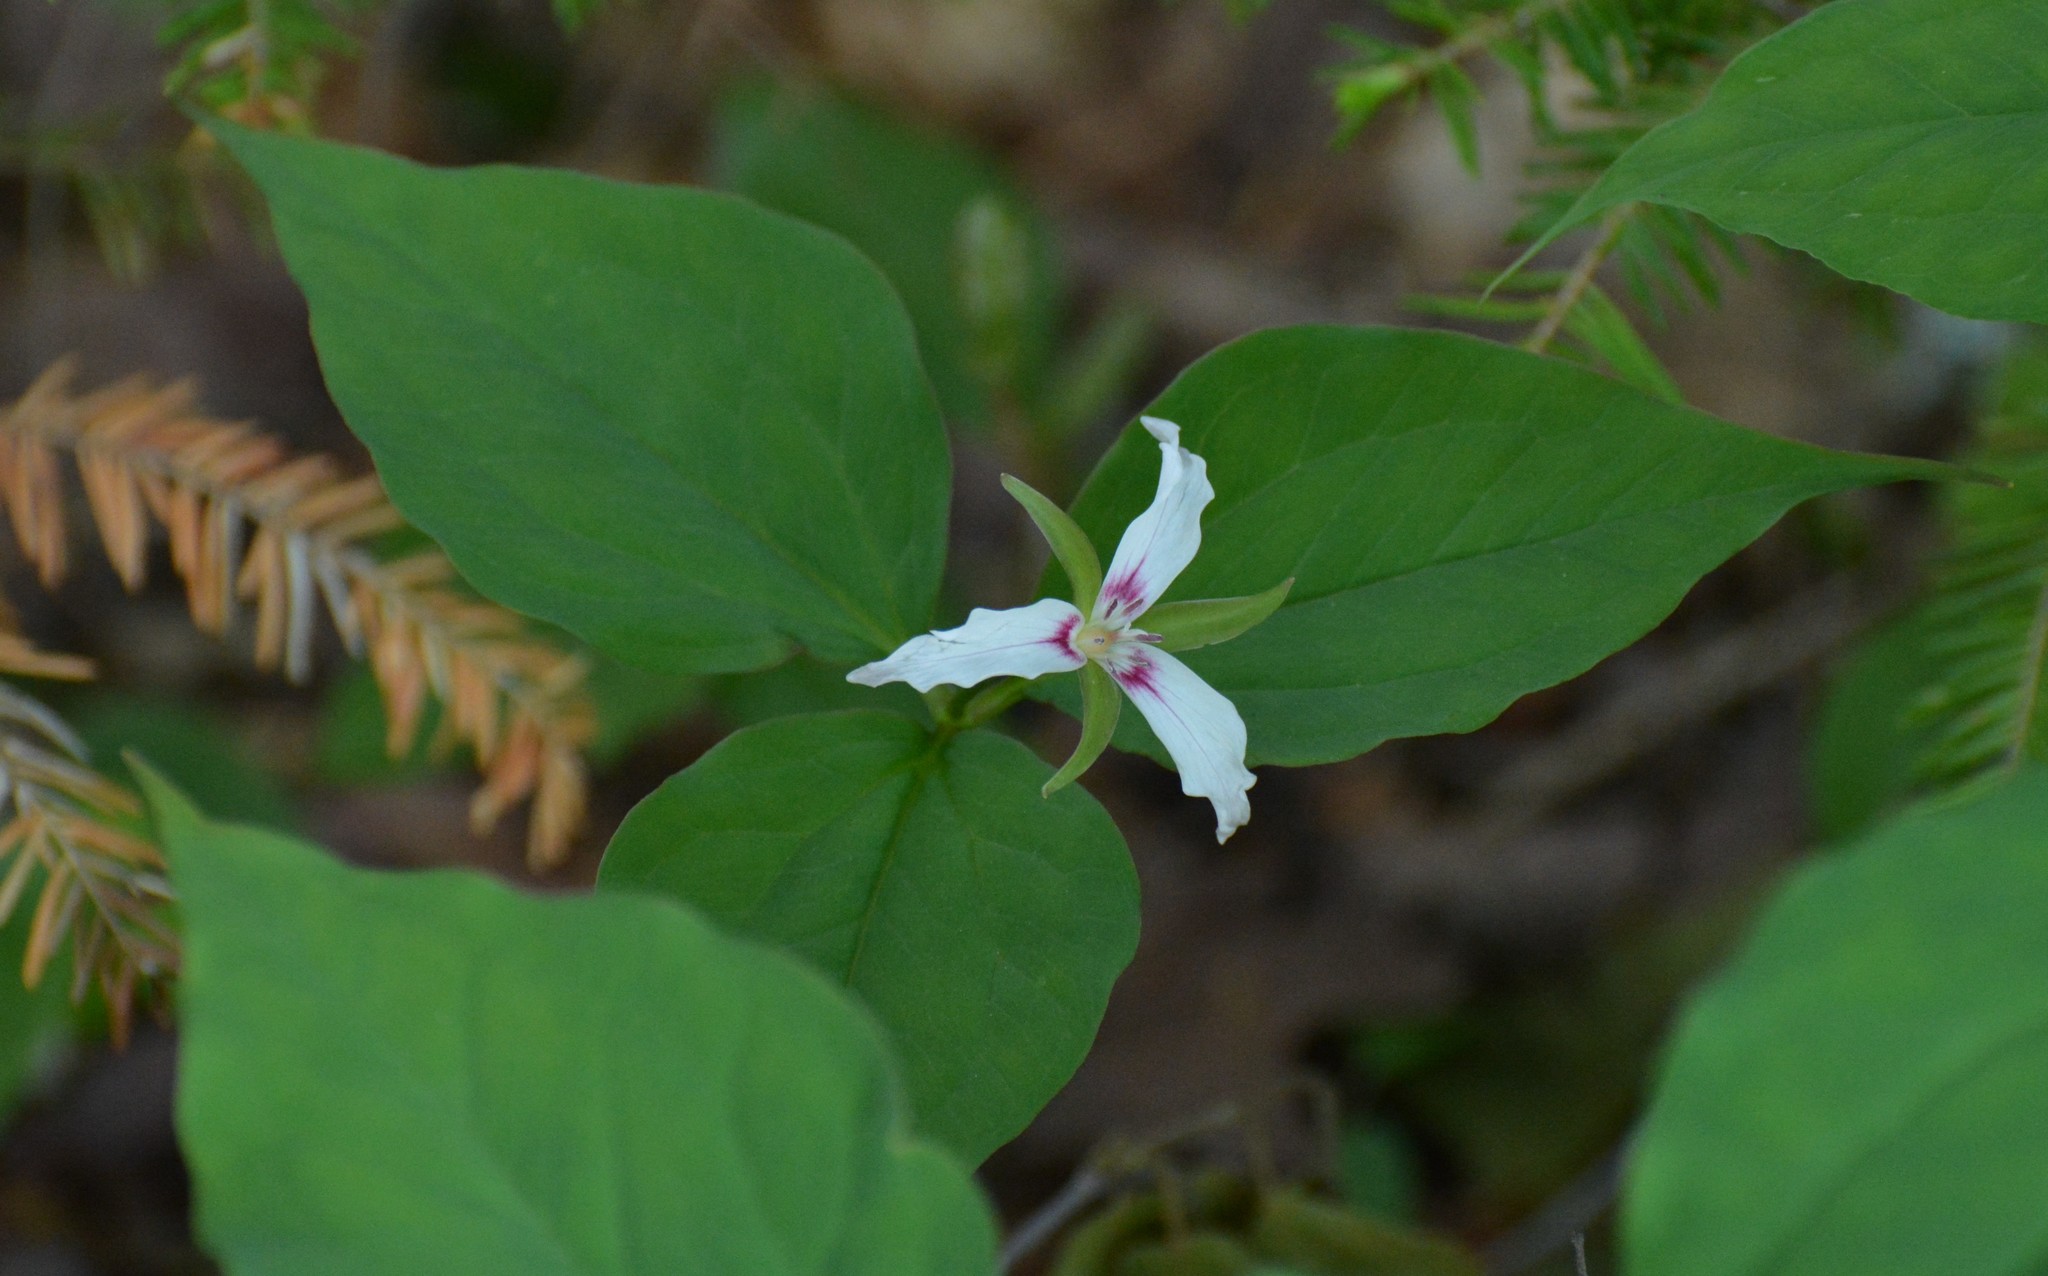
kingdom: Plantae
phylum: Tracheophyta
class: Liliopsida
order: Liliales
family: Melanthiaceae
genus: Trillium
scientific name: Trillium undulatum
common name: Paint trillium
